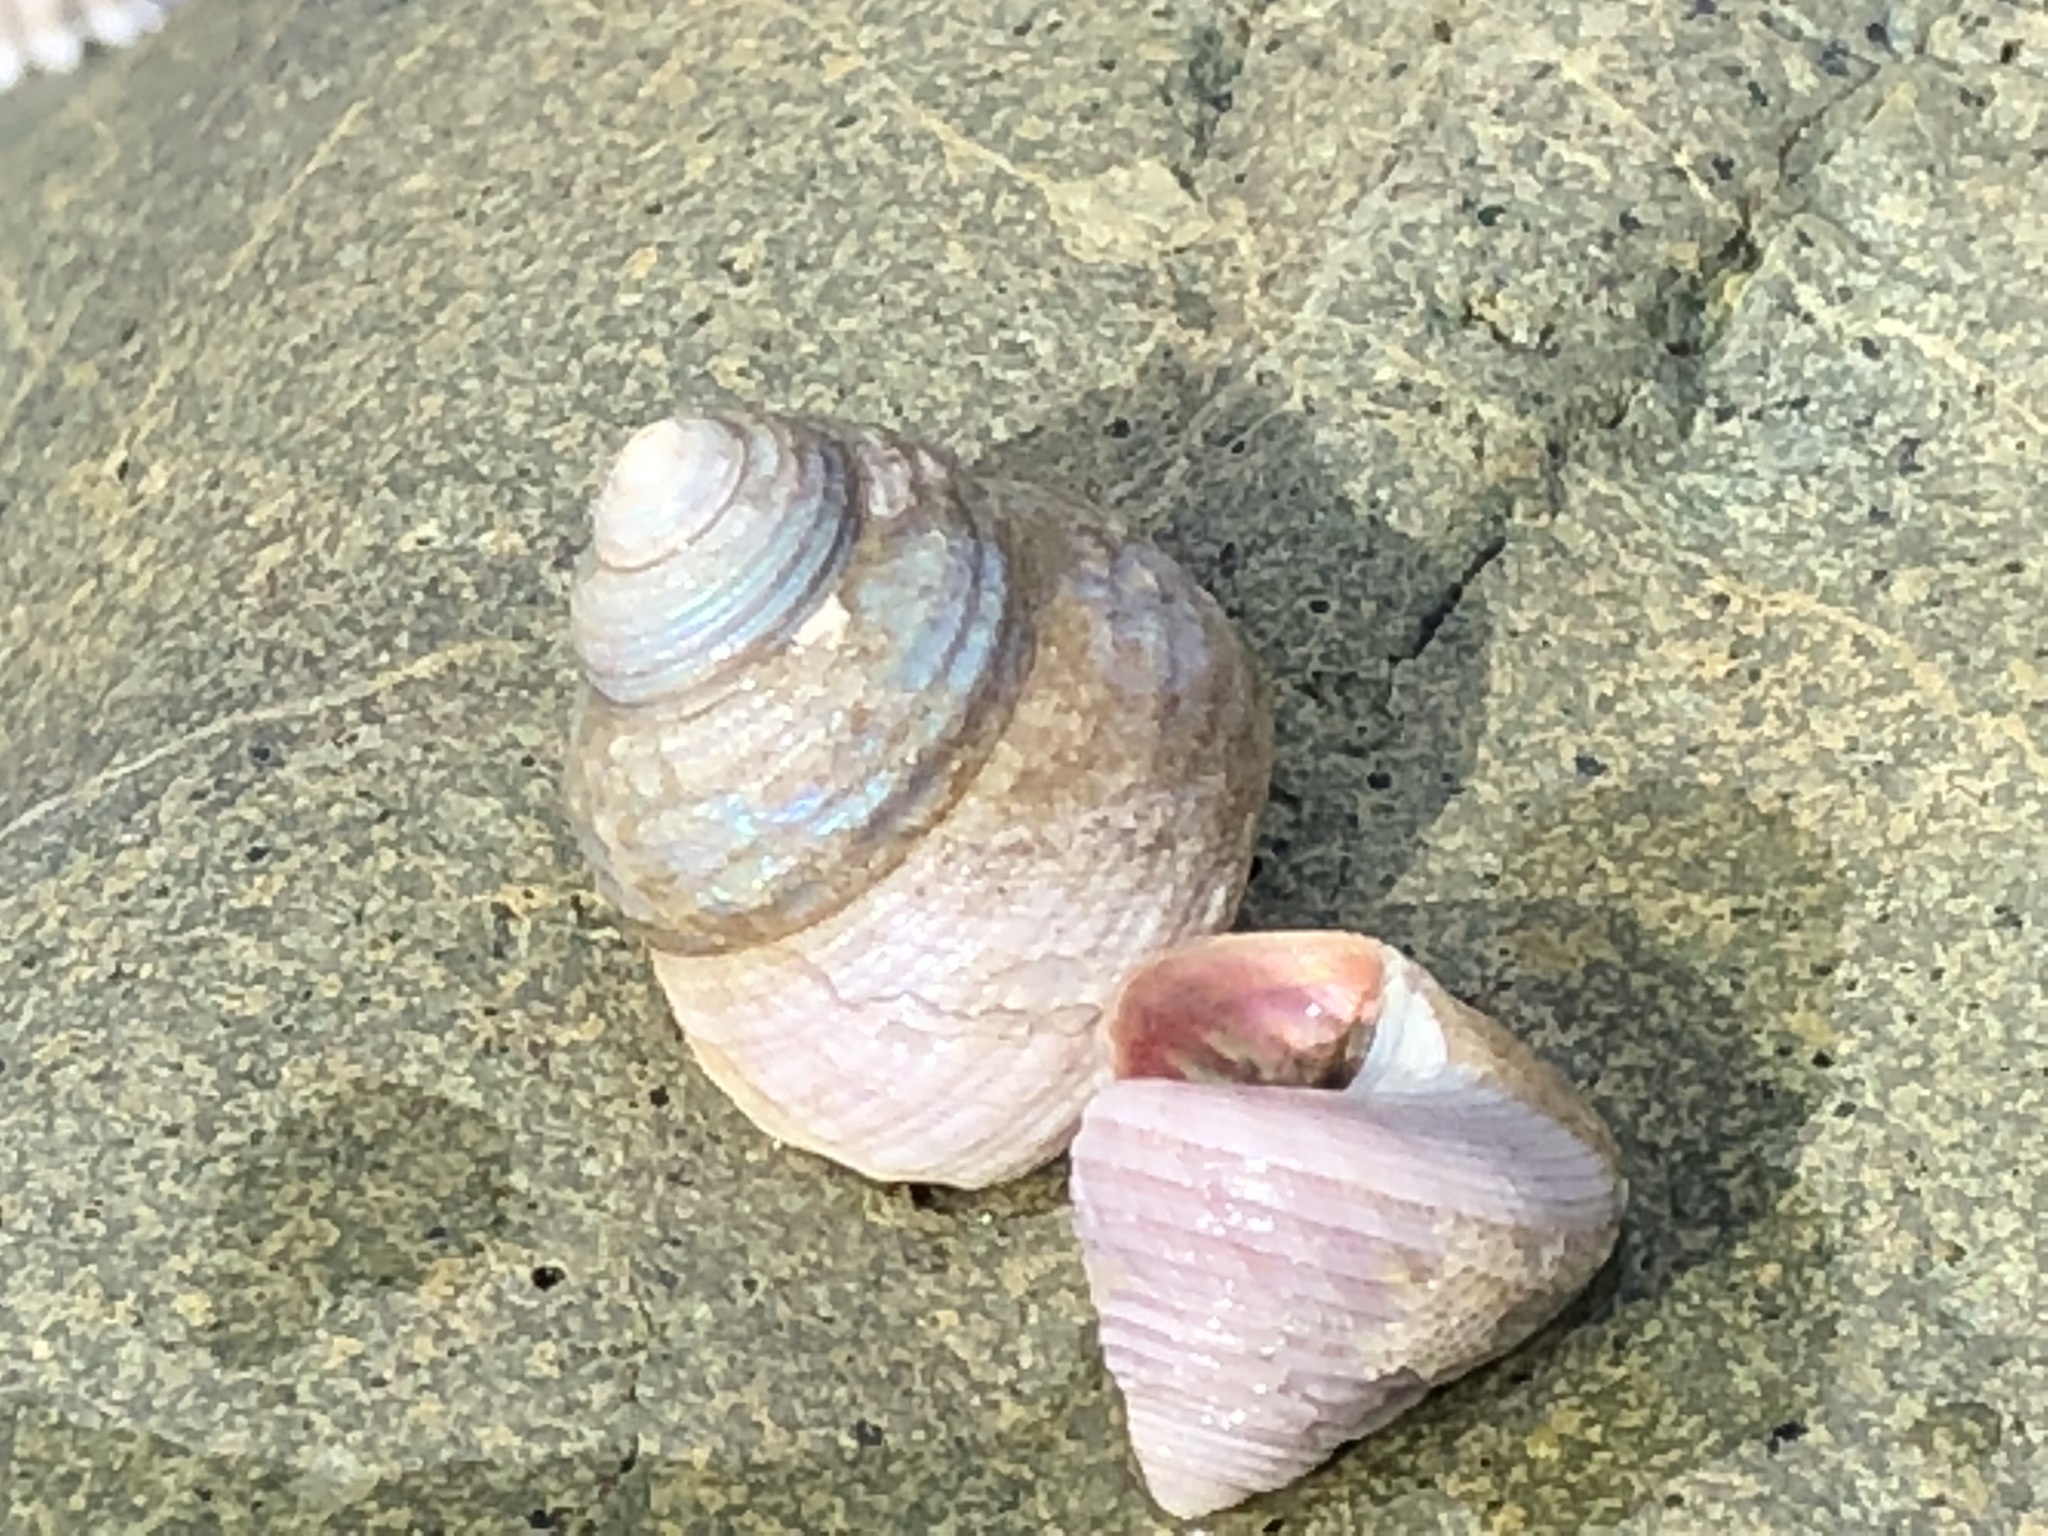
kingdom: Animalia
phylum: Mollusca
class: Gastropoda
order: Trochida
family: Margaritidae
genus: Margarites
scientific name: Margarites pupillus
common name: Puppet margarite
